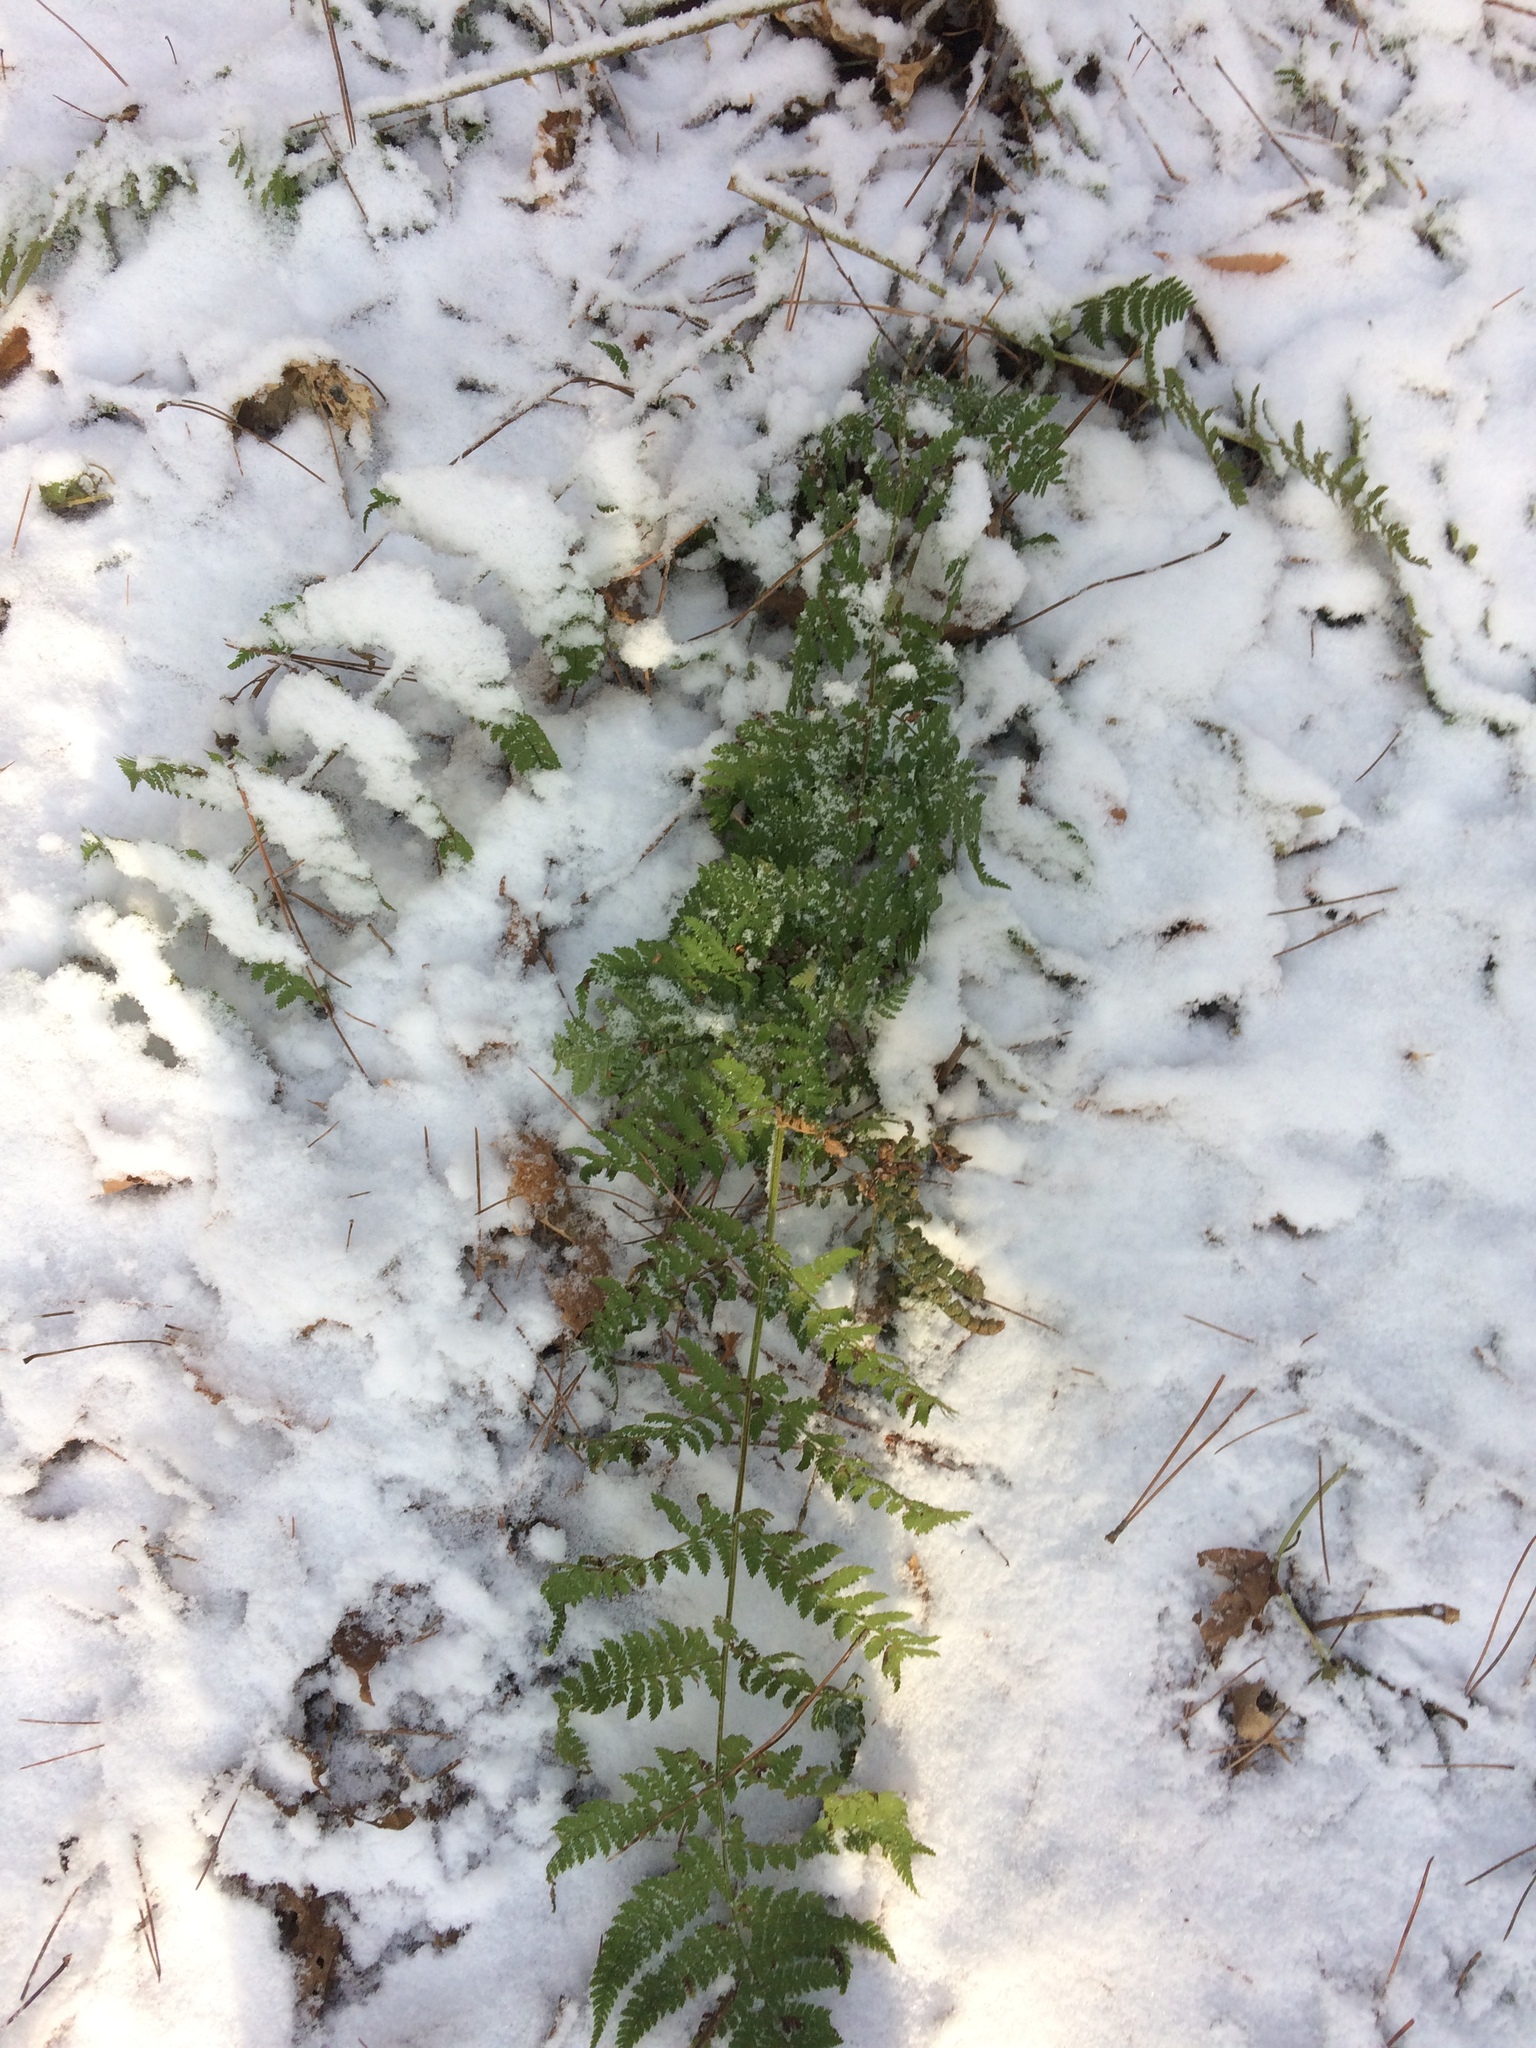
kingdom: Plantae
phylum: Tracheophyta
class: Polypodiopsida
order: Polypodiales
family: Dryopteridaceae
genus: Dryopteris
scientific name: Dryopteris intermedia
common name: Evergreen wood fern
